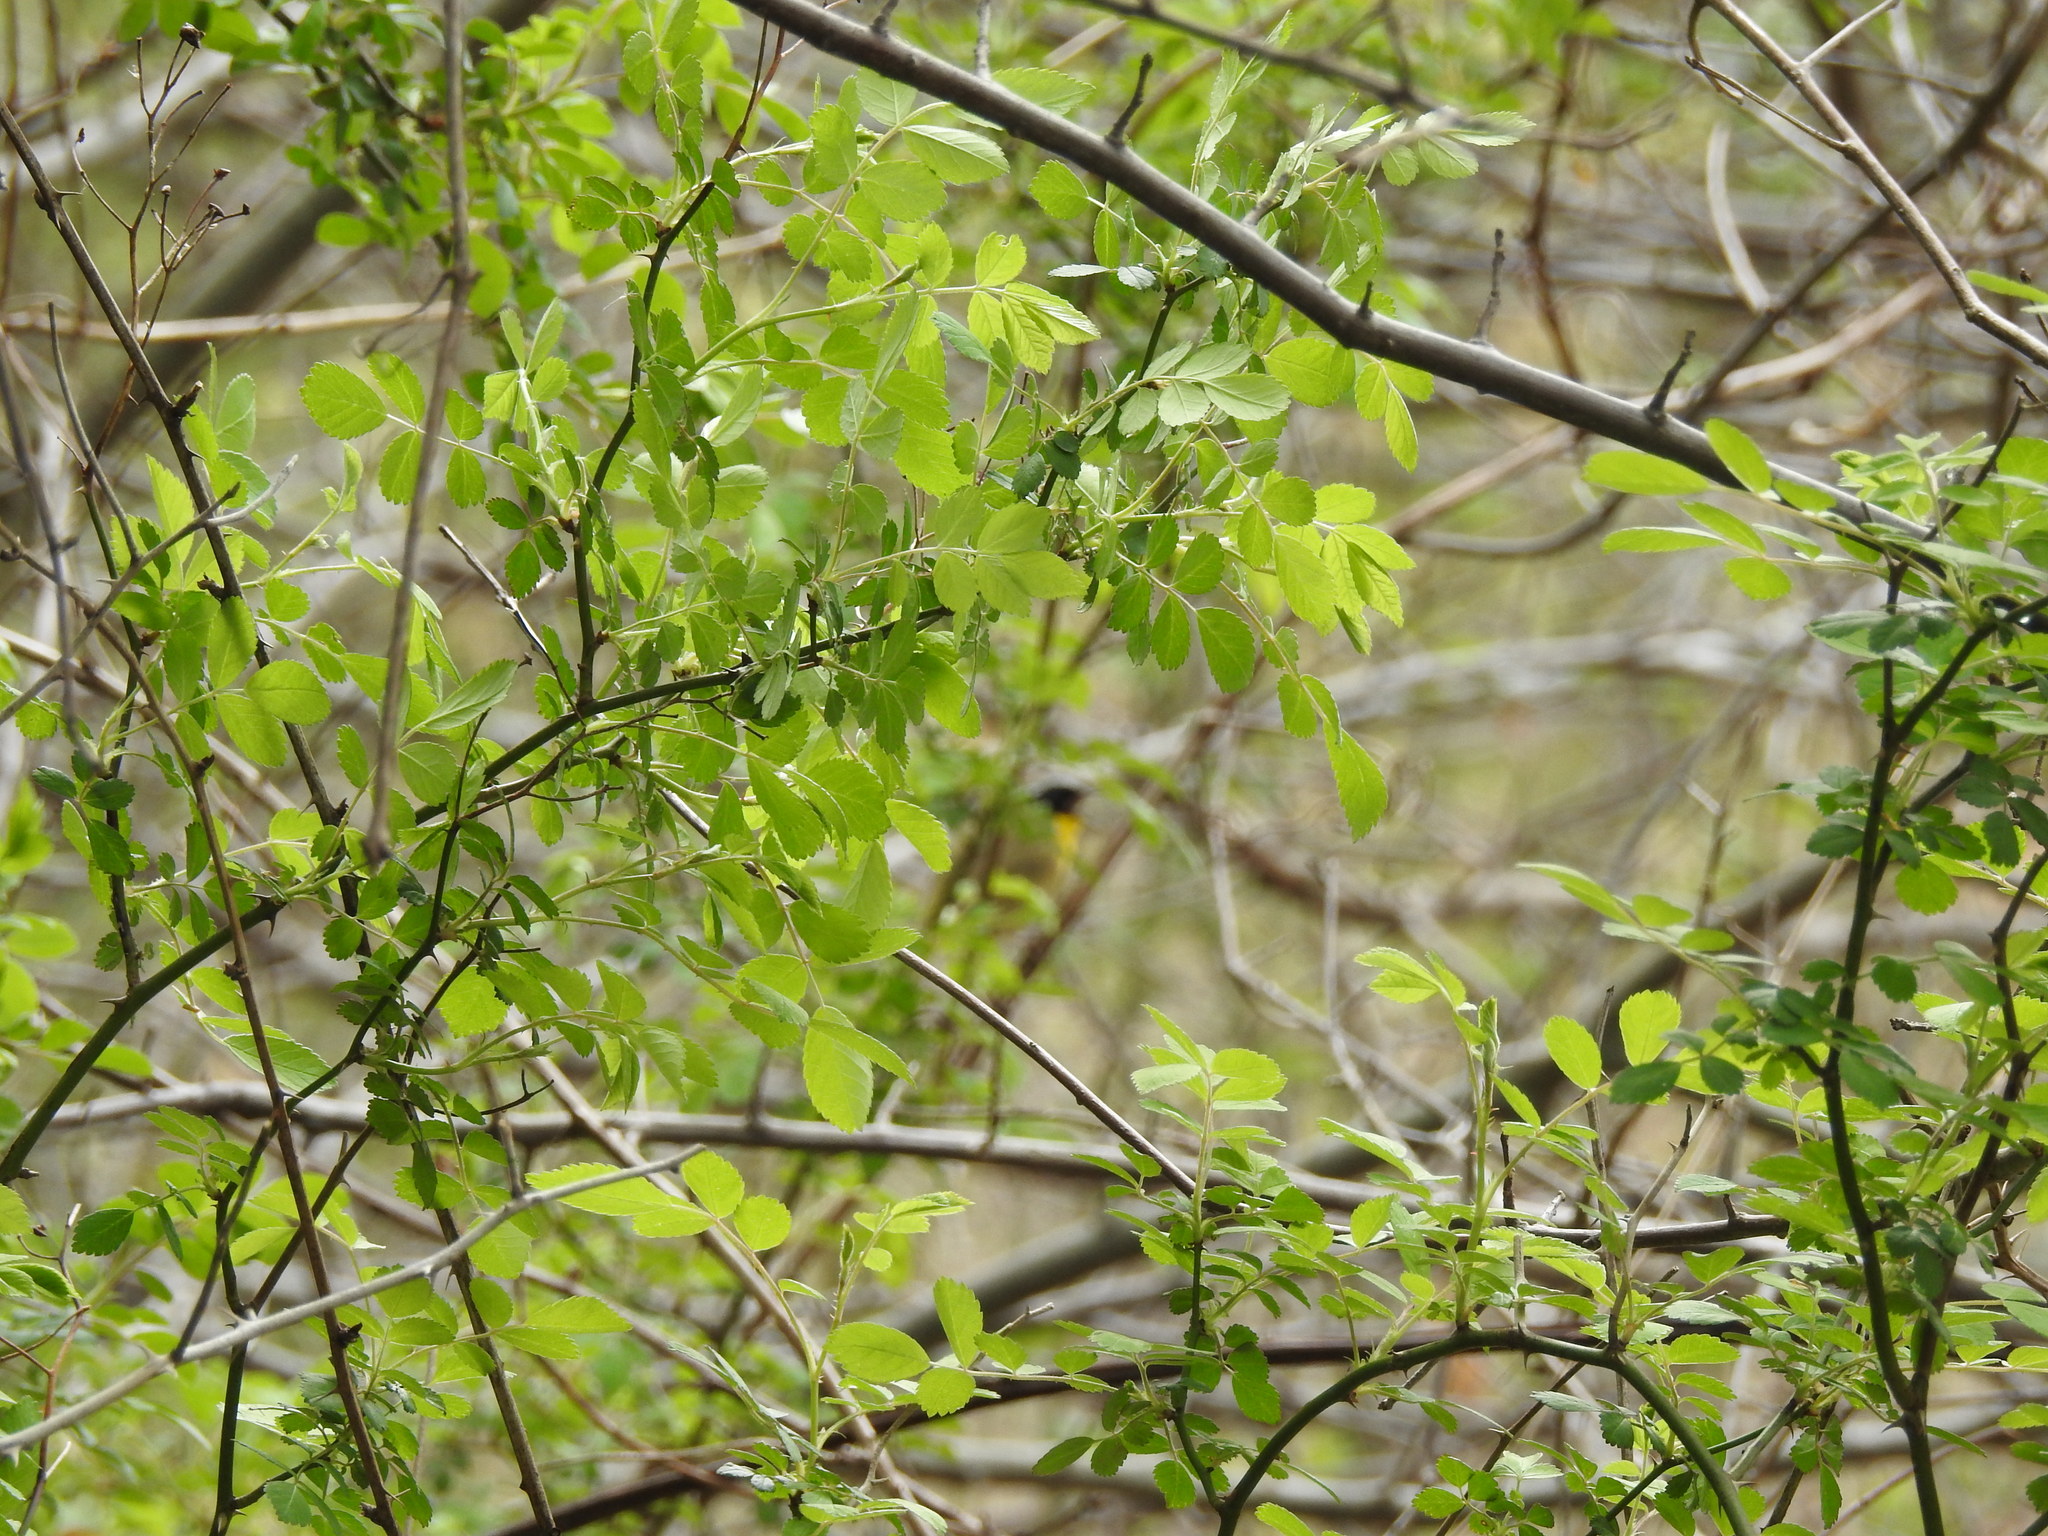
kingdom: Animalia
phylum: Chordata
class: Aves
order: Passeriformes
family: Parulidae
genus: Geothlypis
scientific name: Geothlypis trichas
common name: Common yellowthroat
